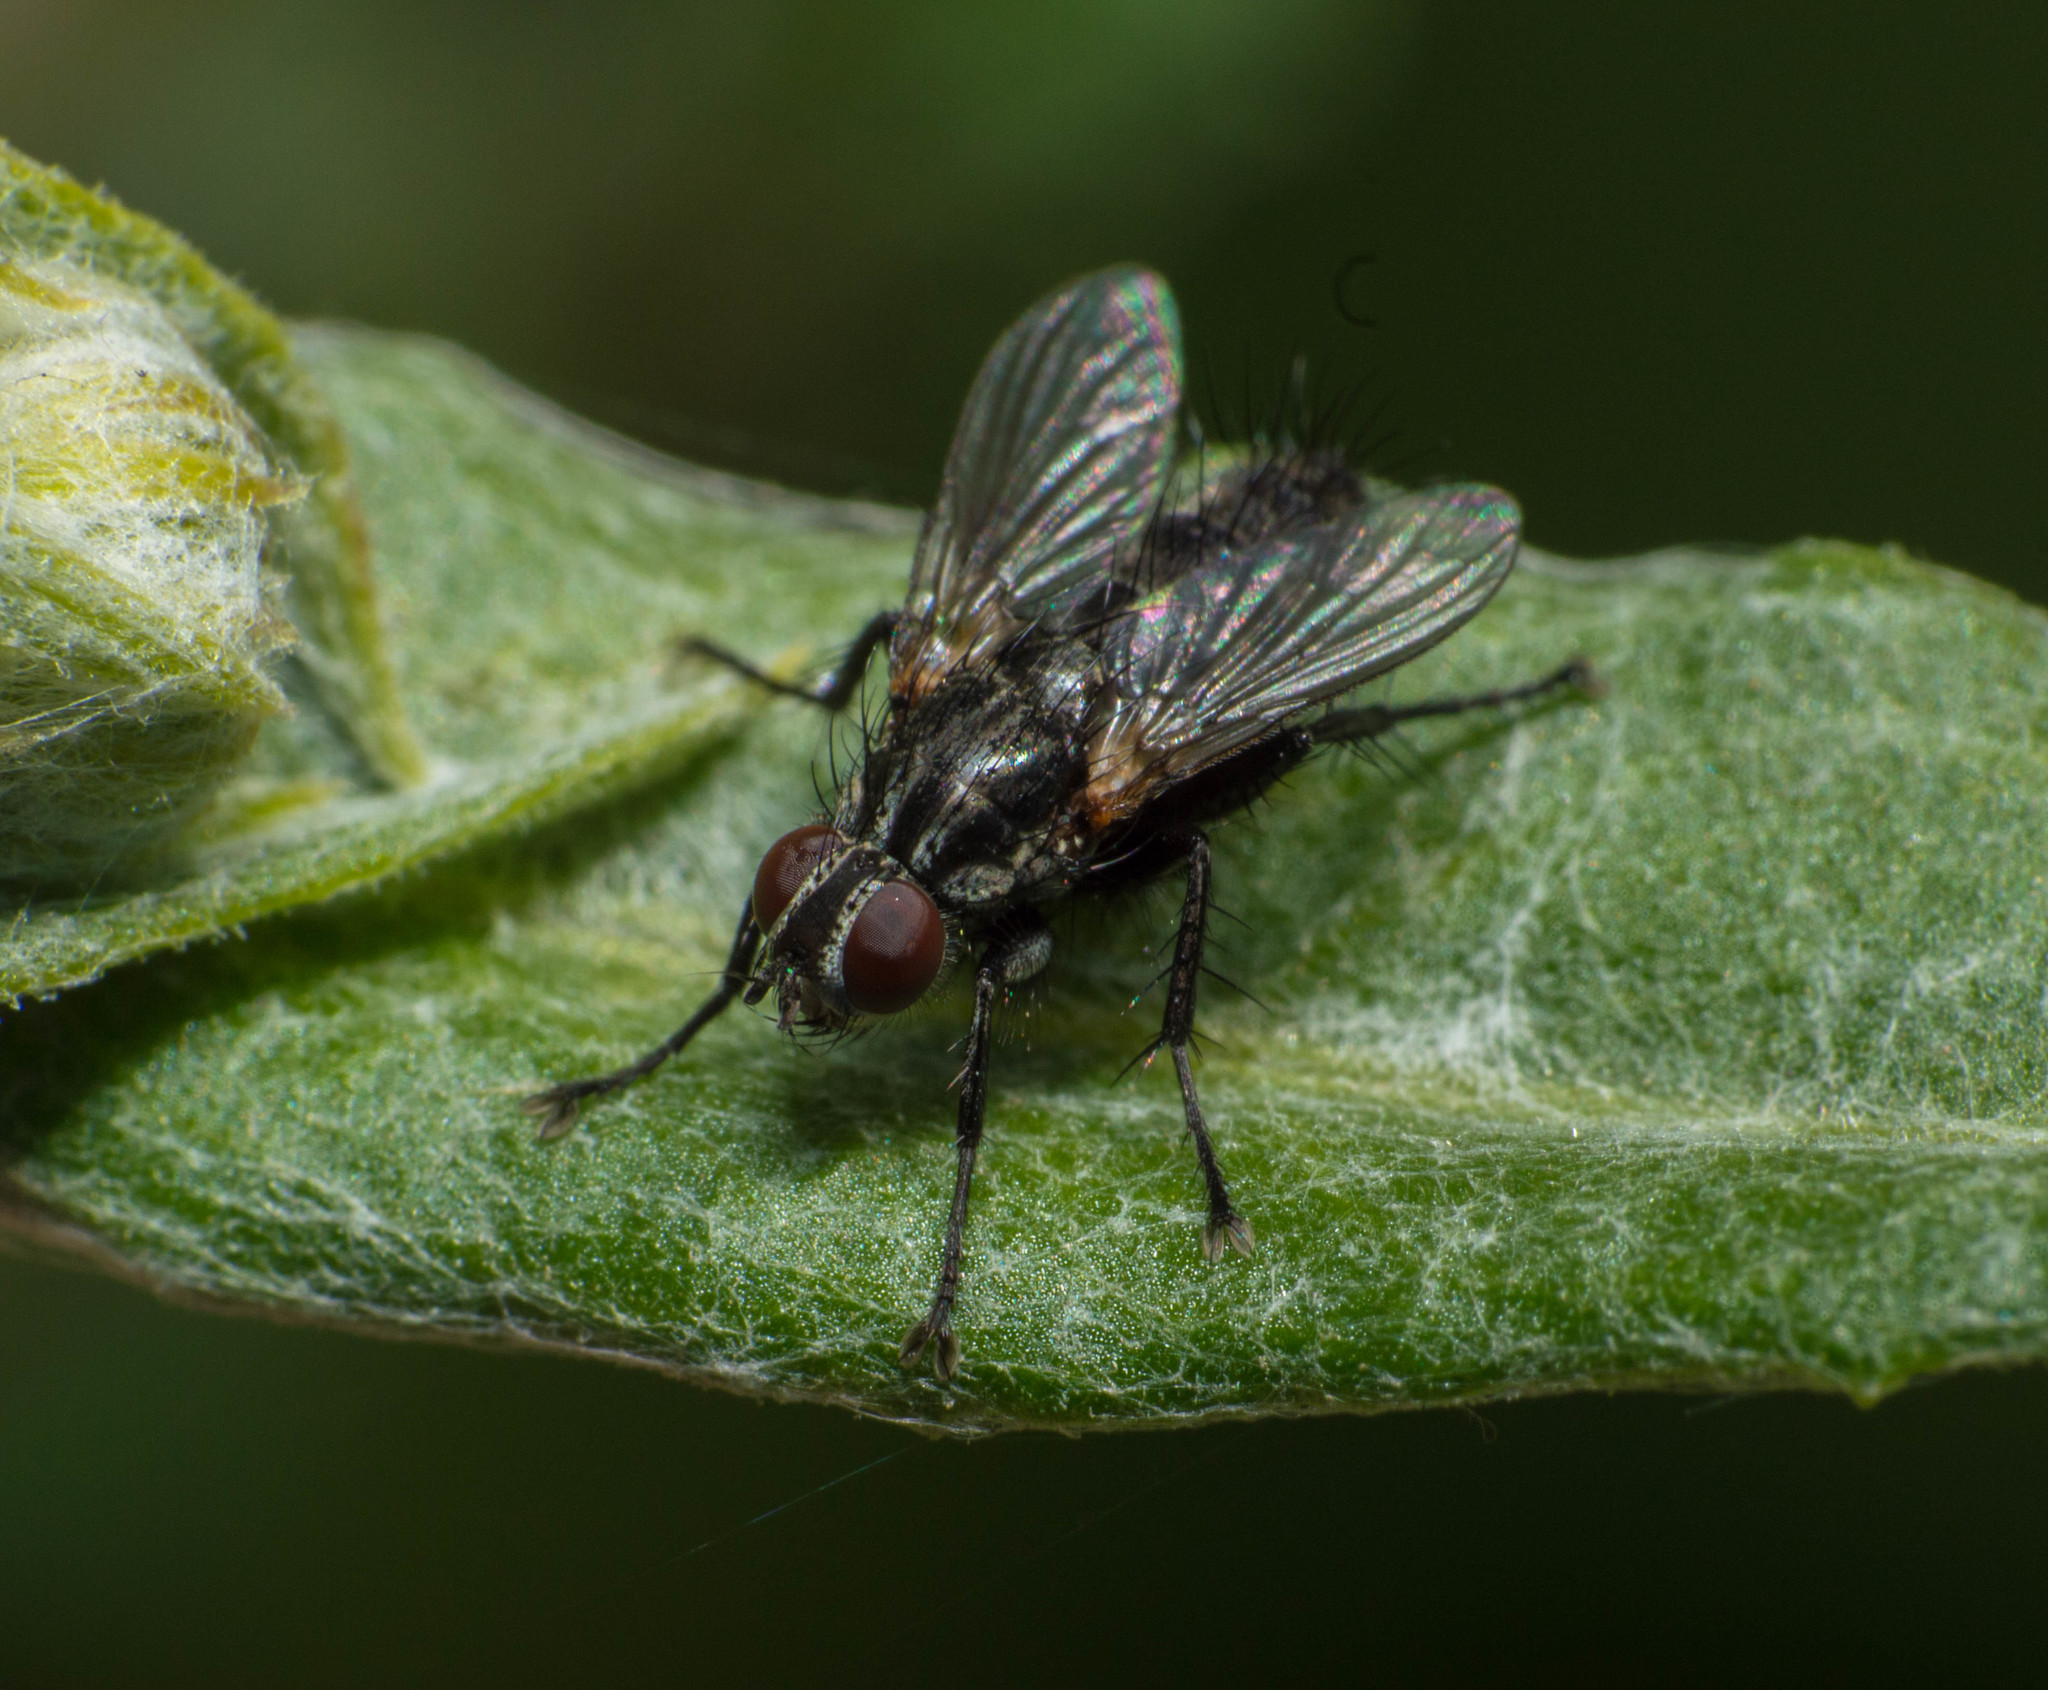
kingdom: Animalia
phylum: Arthropoda
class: Insecta
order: Diptera
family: Calliphoridae
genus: Stevenia
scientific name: Stevenia deceptoria
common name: Grizzled woodlouse-fly
